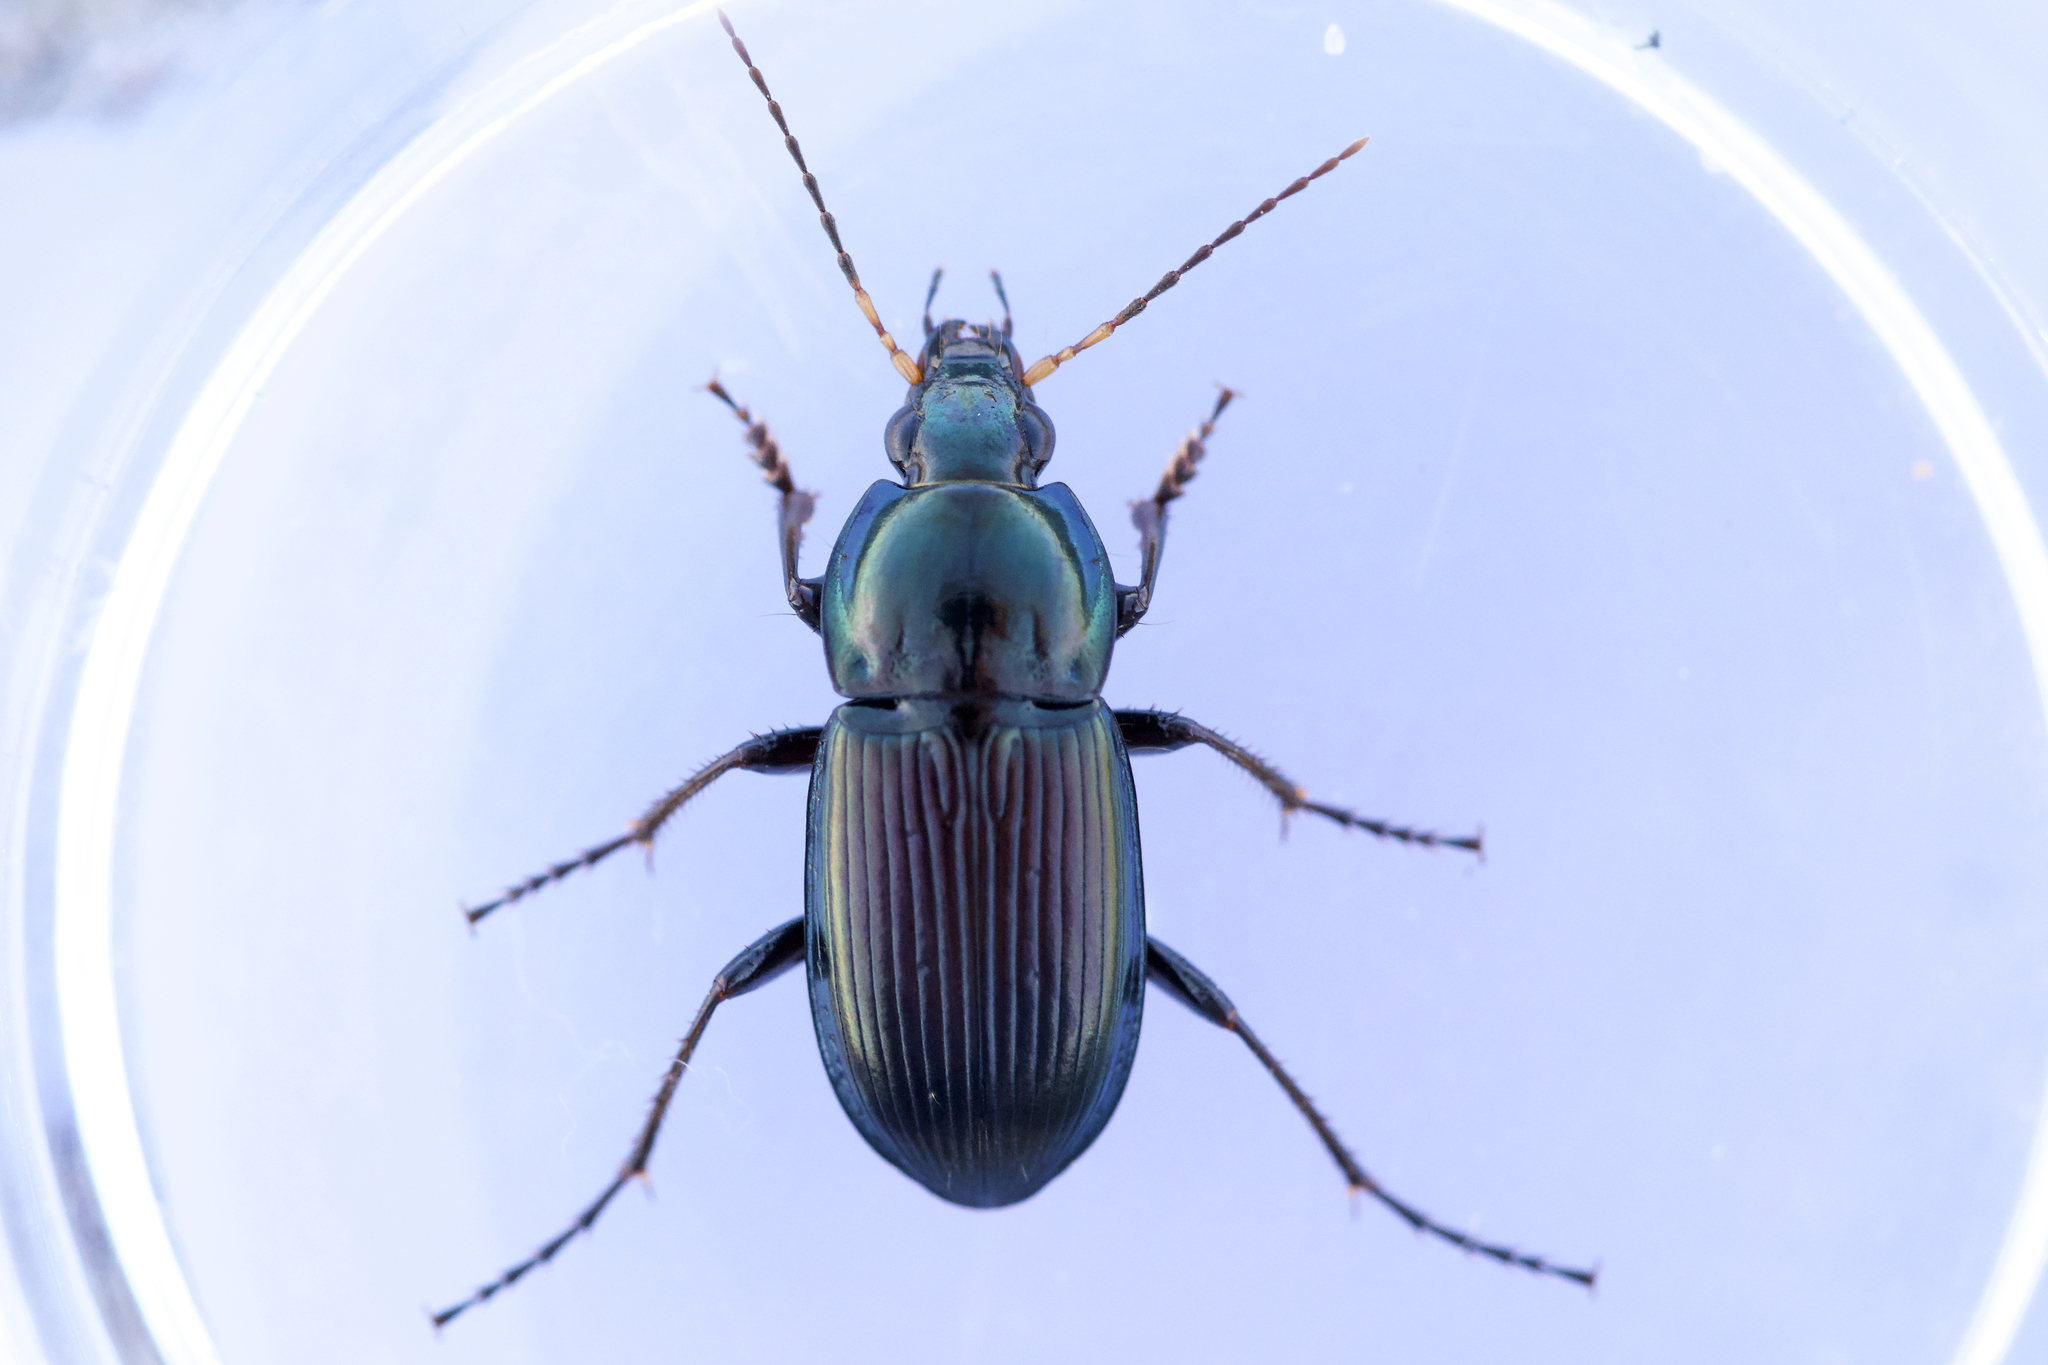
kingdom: Animalia
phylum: Arthropoda
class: Insecta
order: Coleoptera
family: Carabidae
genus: Poecilus
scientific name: Poecilus lucublandus
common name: Woodland ground beetle
